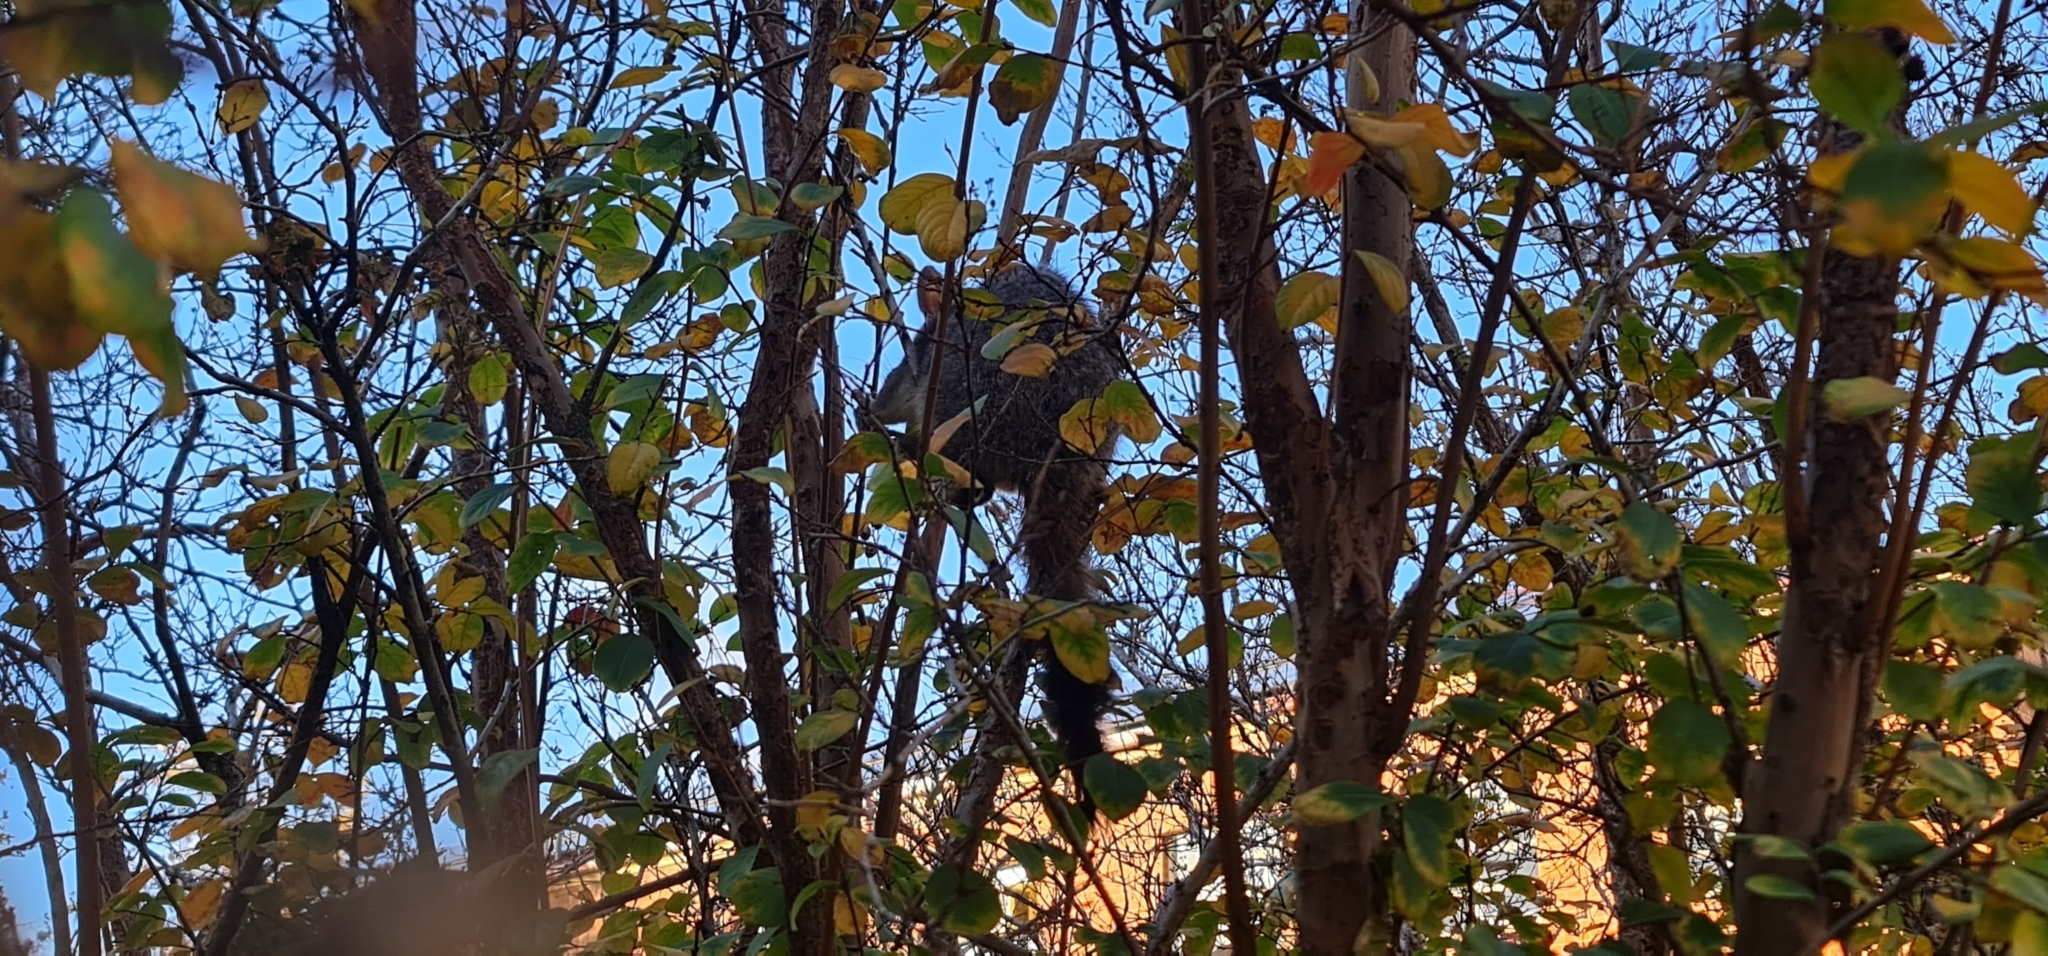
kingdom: Animalia
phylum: Chordata
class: Mammalia
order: Diprotodontia
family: Phalangeridae
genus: Trichosurus
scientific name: Trichosurus vulpecula
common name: Common brushtail
